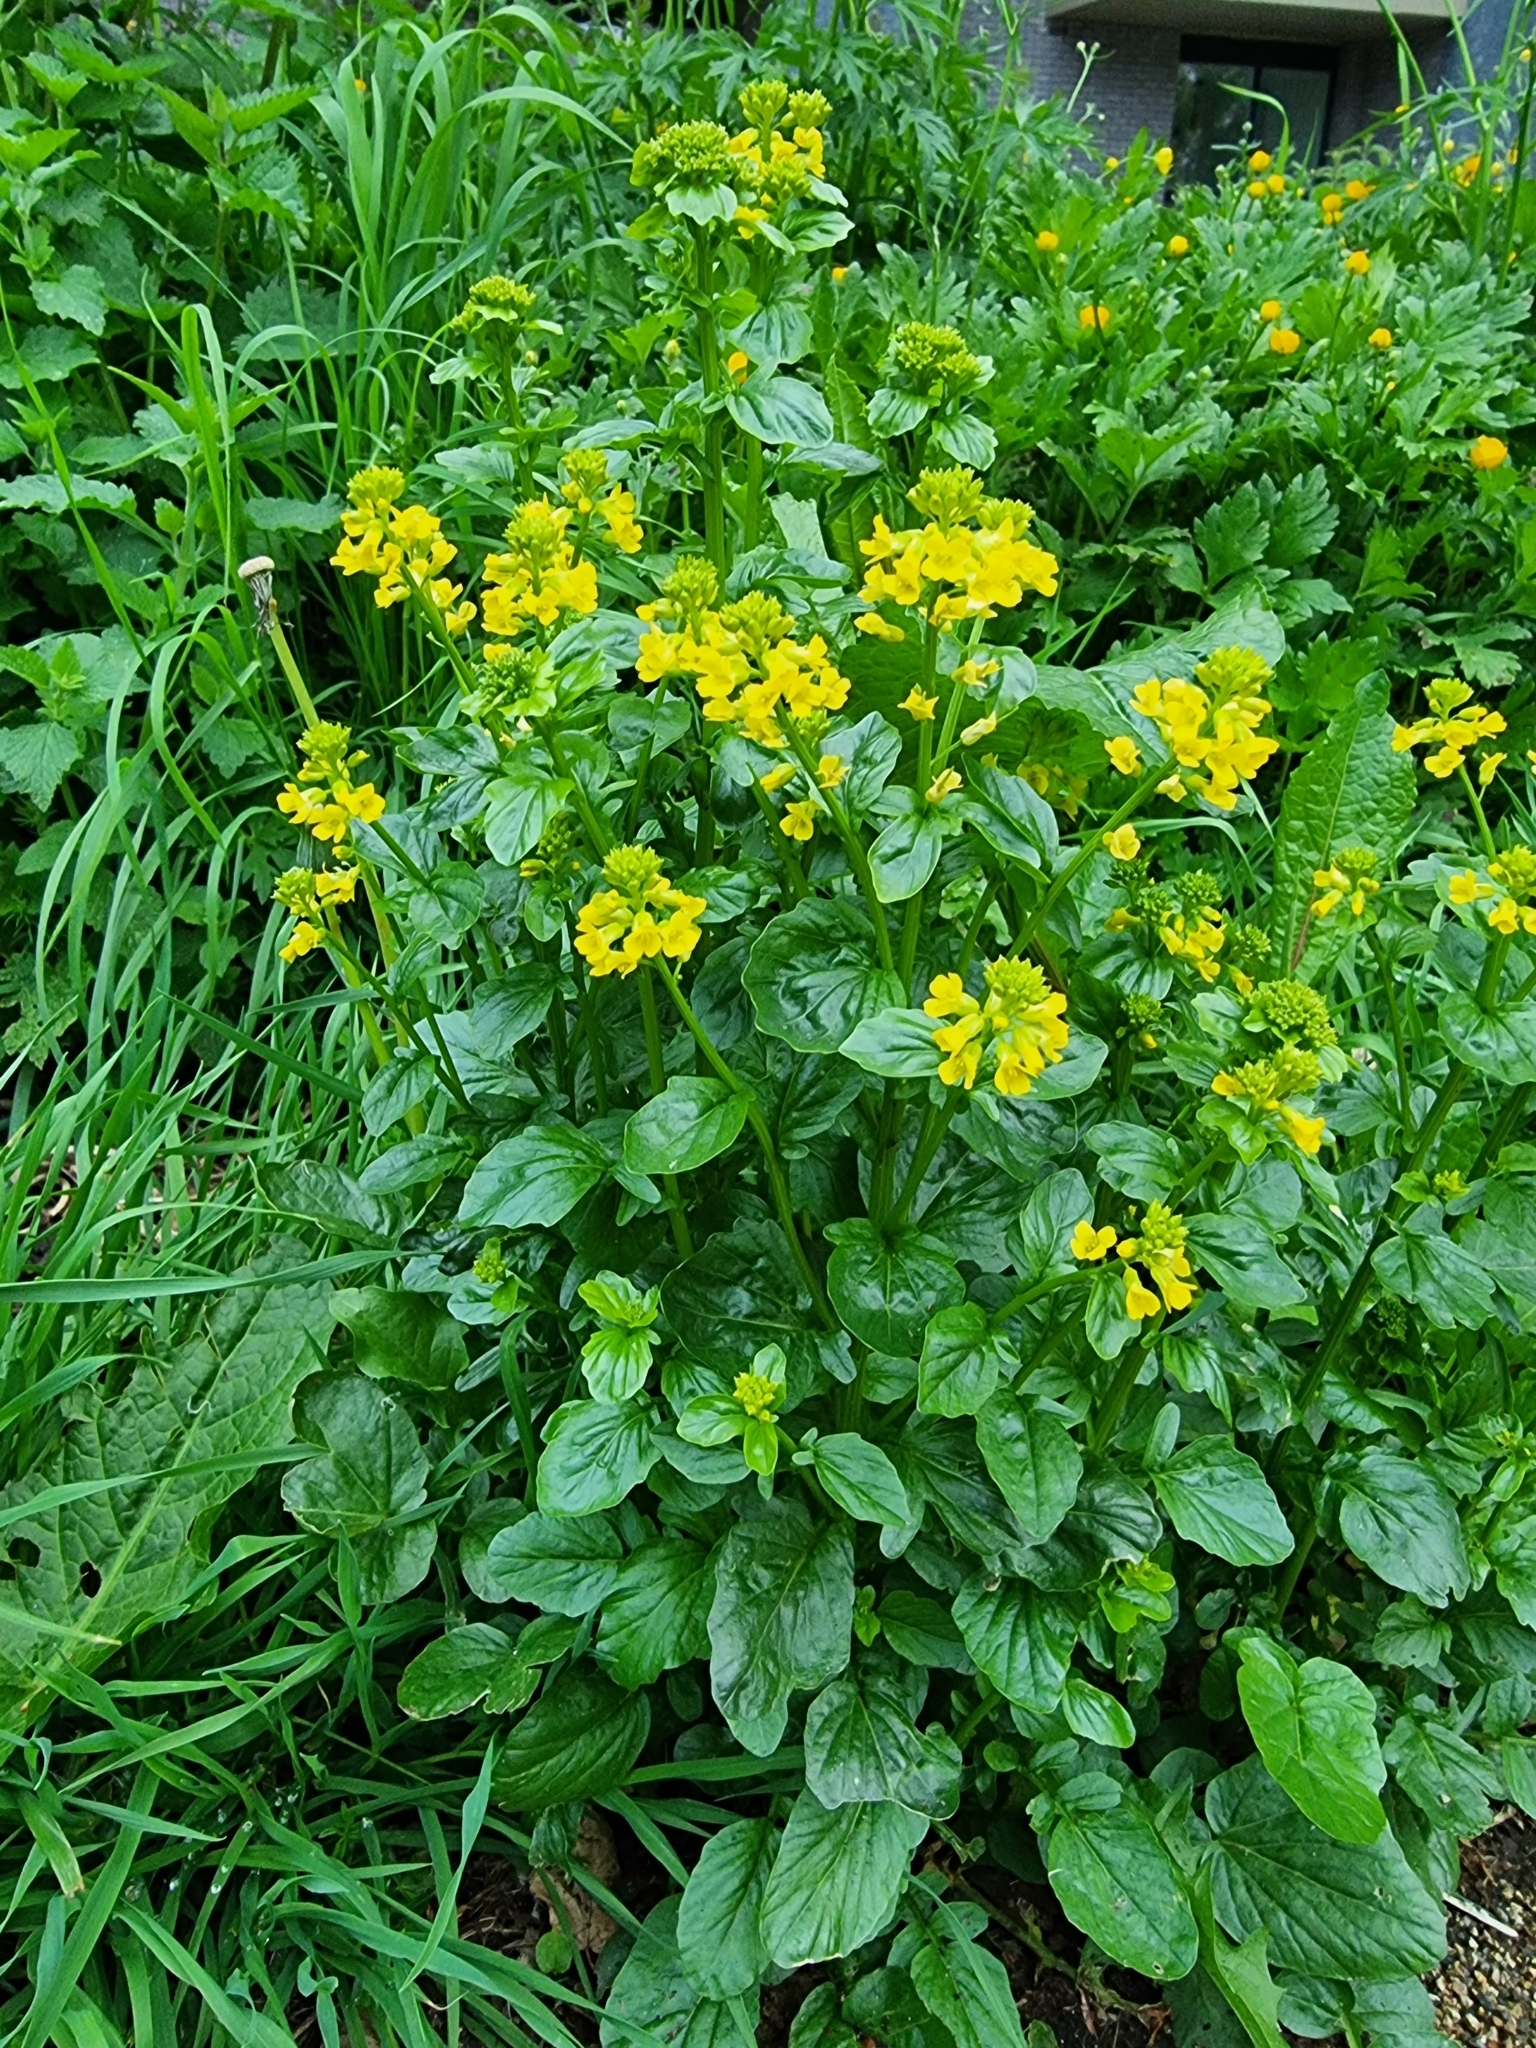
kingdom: Plantae
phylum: Tracheophyta
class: Magnoliopsida
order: Brassicales
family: Brassicaceae
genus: Barbarea
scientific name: Barbarea vulgaris
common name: Cressy-greens
